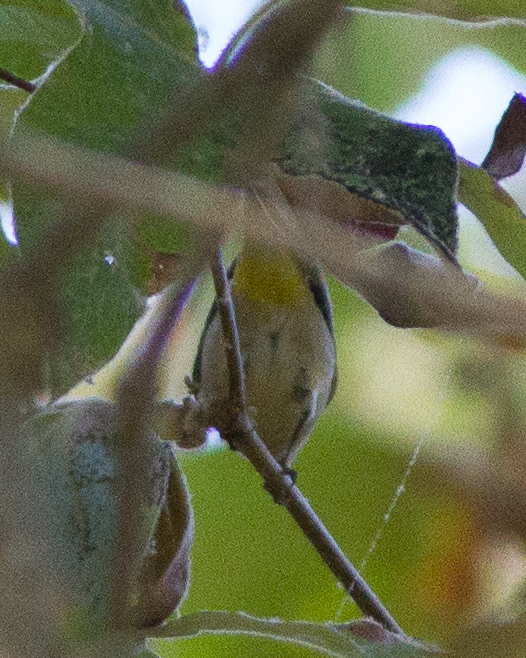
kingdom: Animalia
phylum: Chordata
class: Aves
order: Passeriformes
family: Parulidae
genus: Leiothlypis
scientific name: Leiothlypis virginiae
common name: Virginia's warbler
